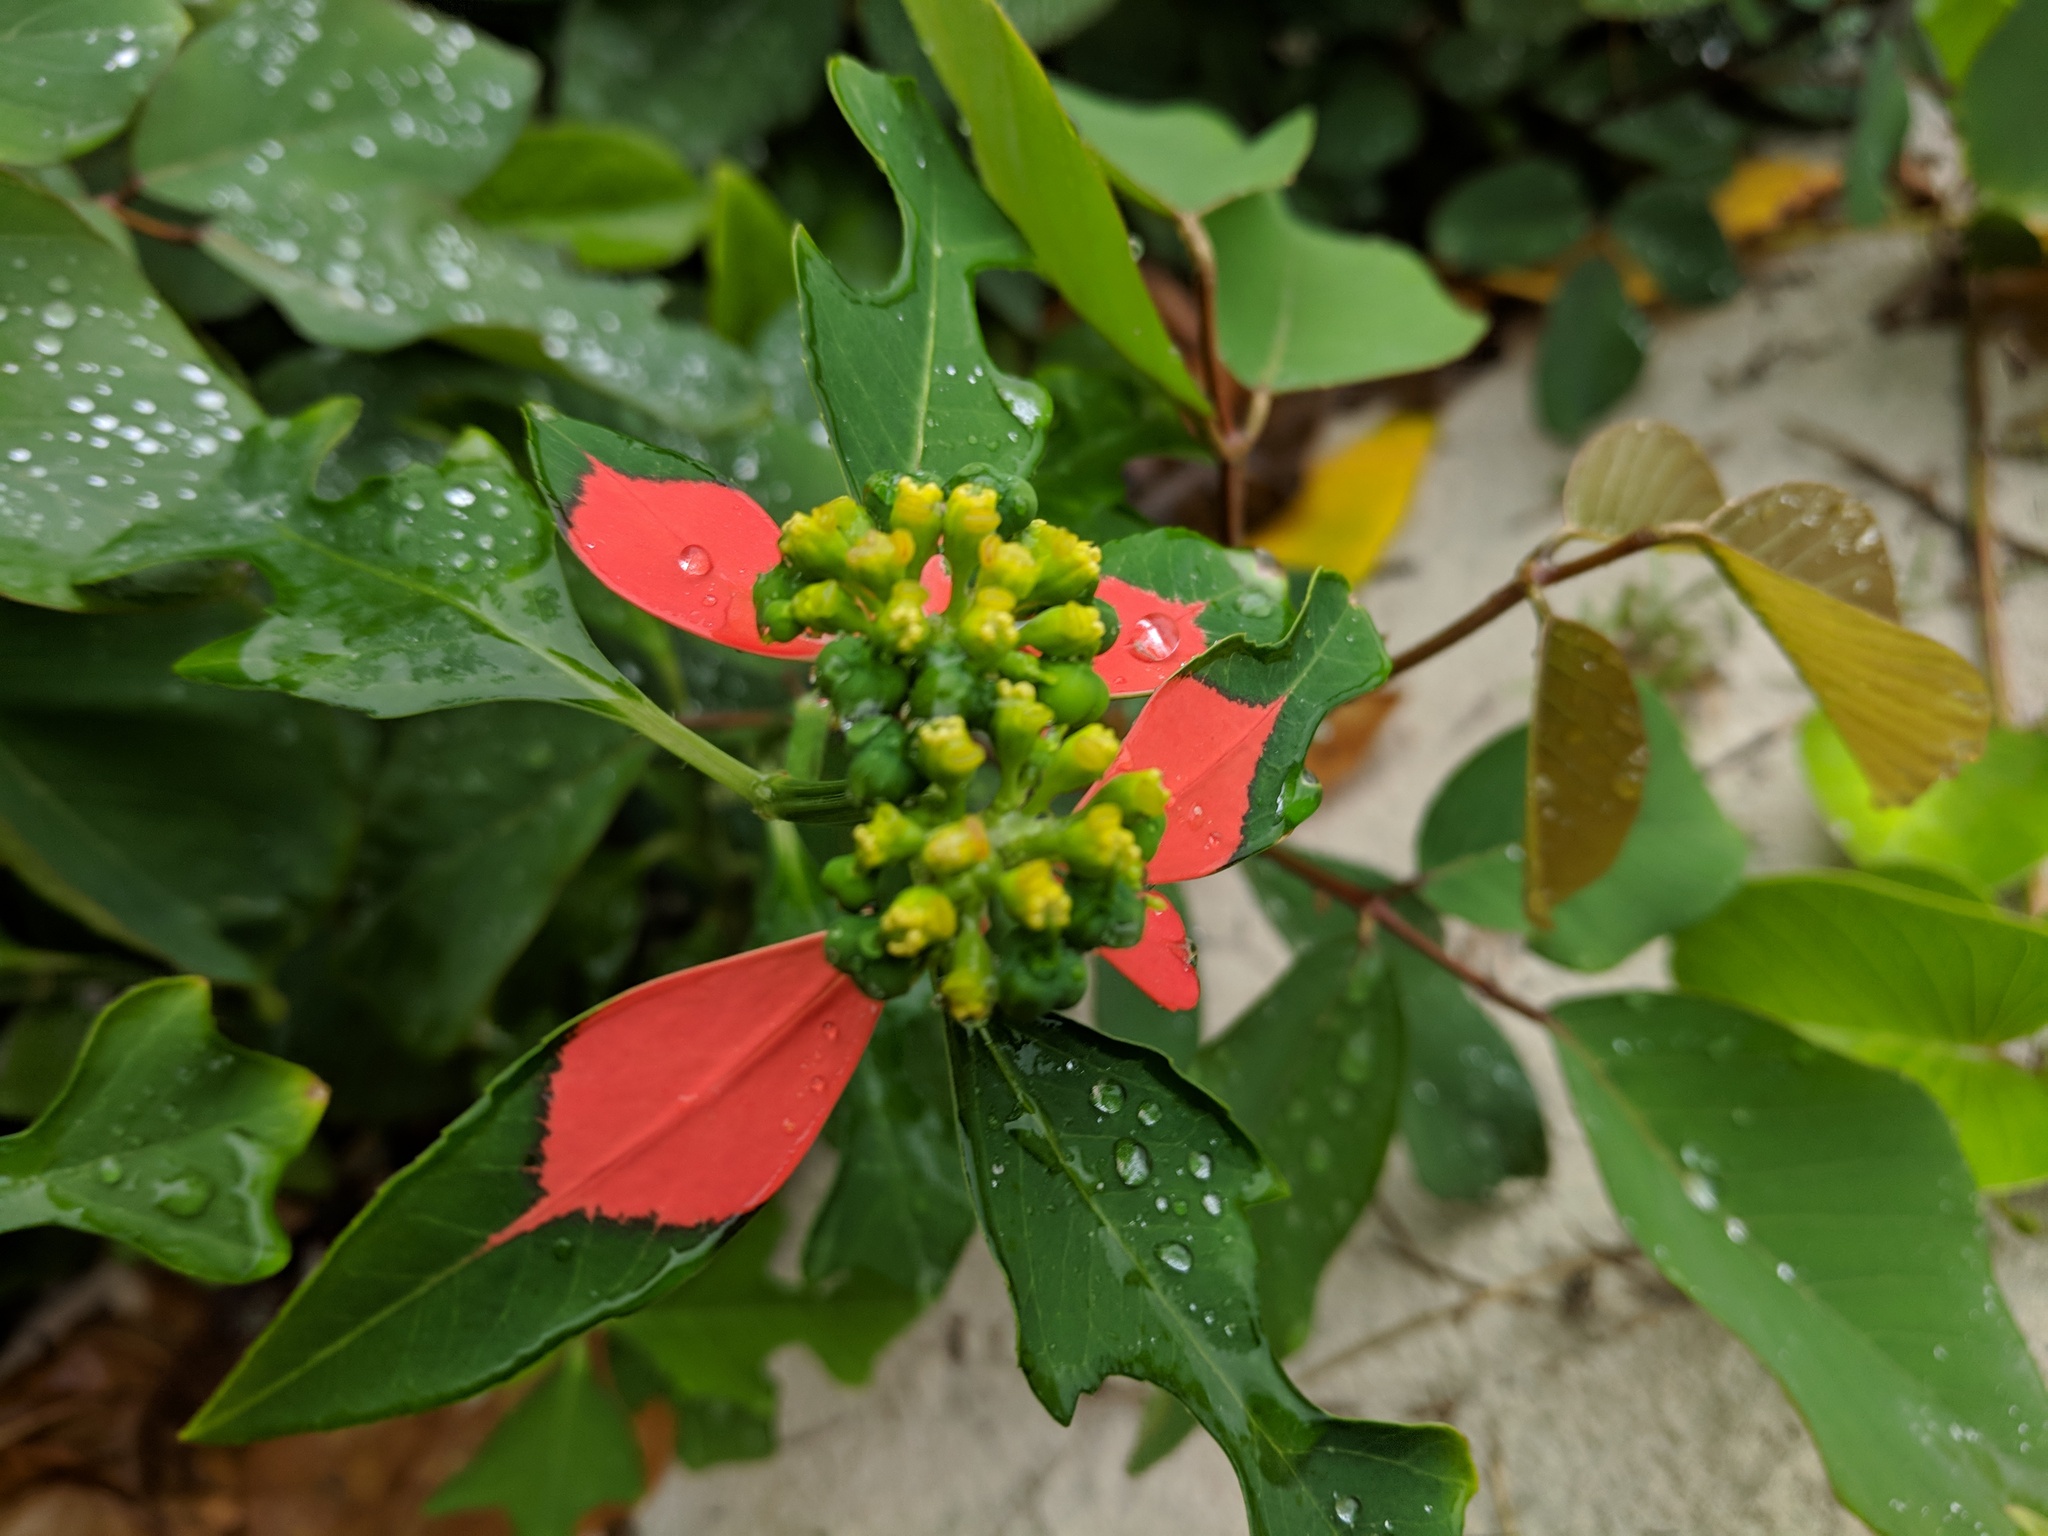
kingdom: Plantae
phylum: Tracheophyta
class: Magnoliopsida
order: Malpighiales
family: Euphorbiaceae
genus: Euphorbia
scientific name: Euphorbia heterophylla
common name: Mexican fireplant
